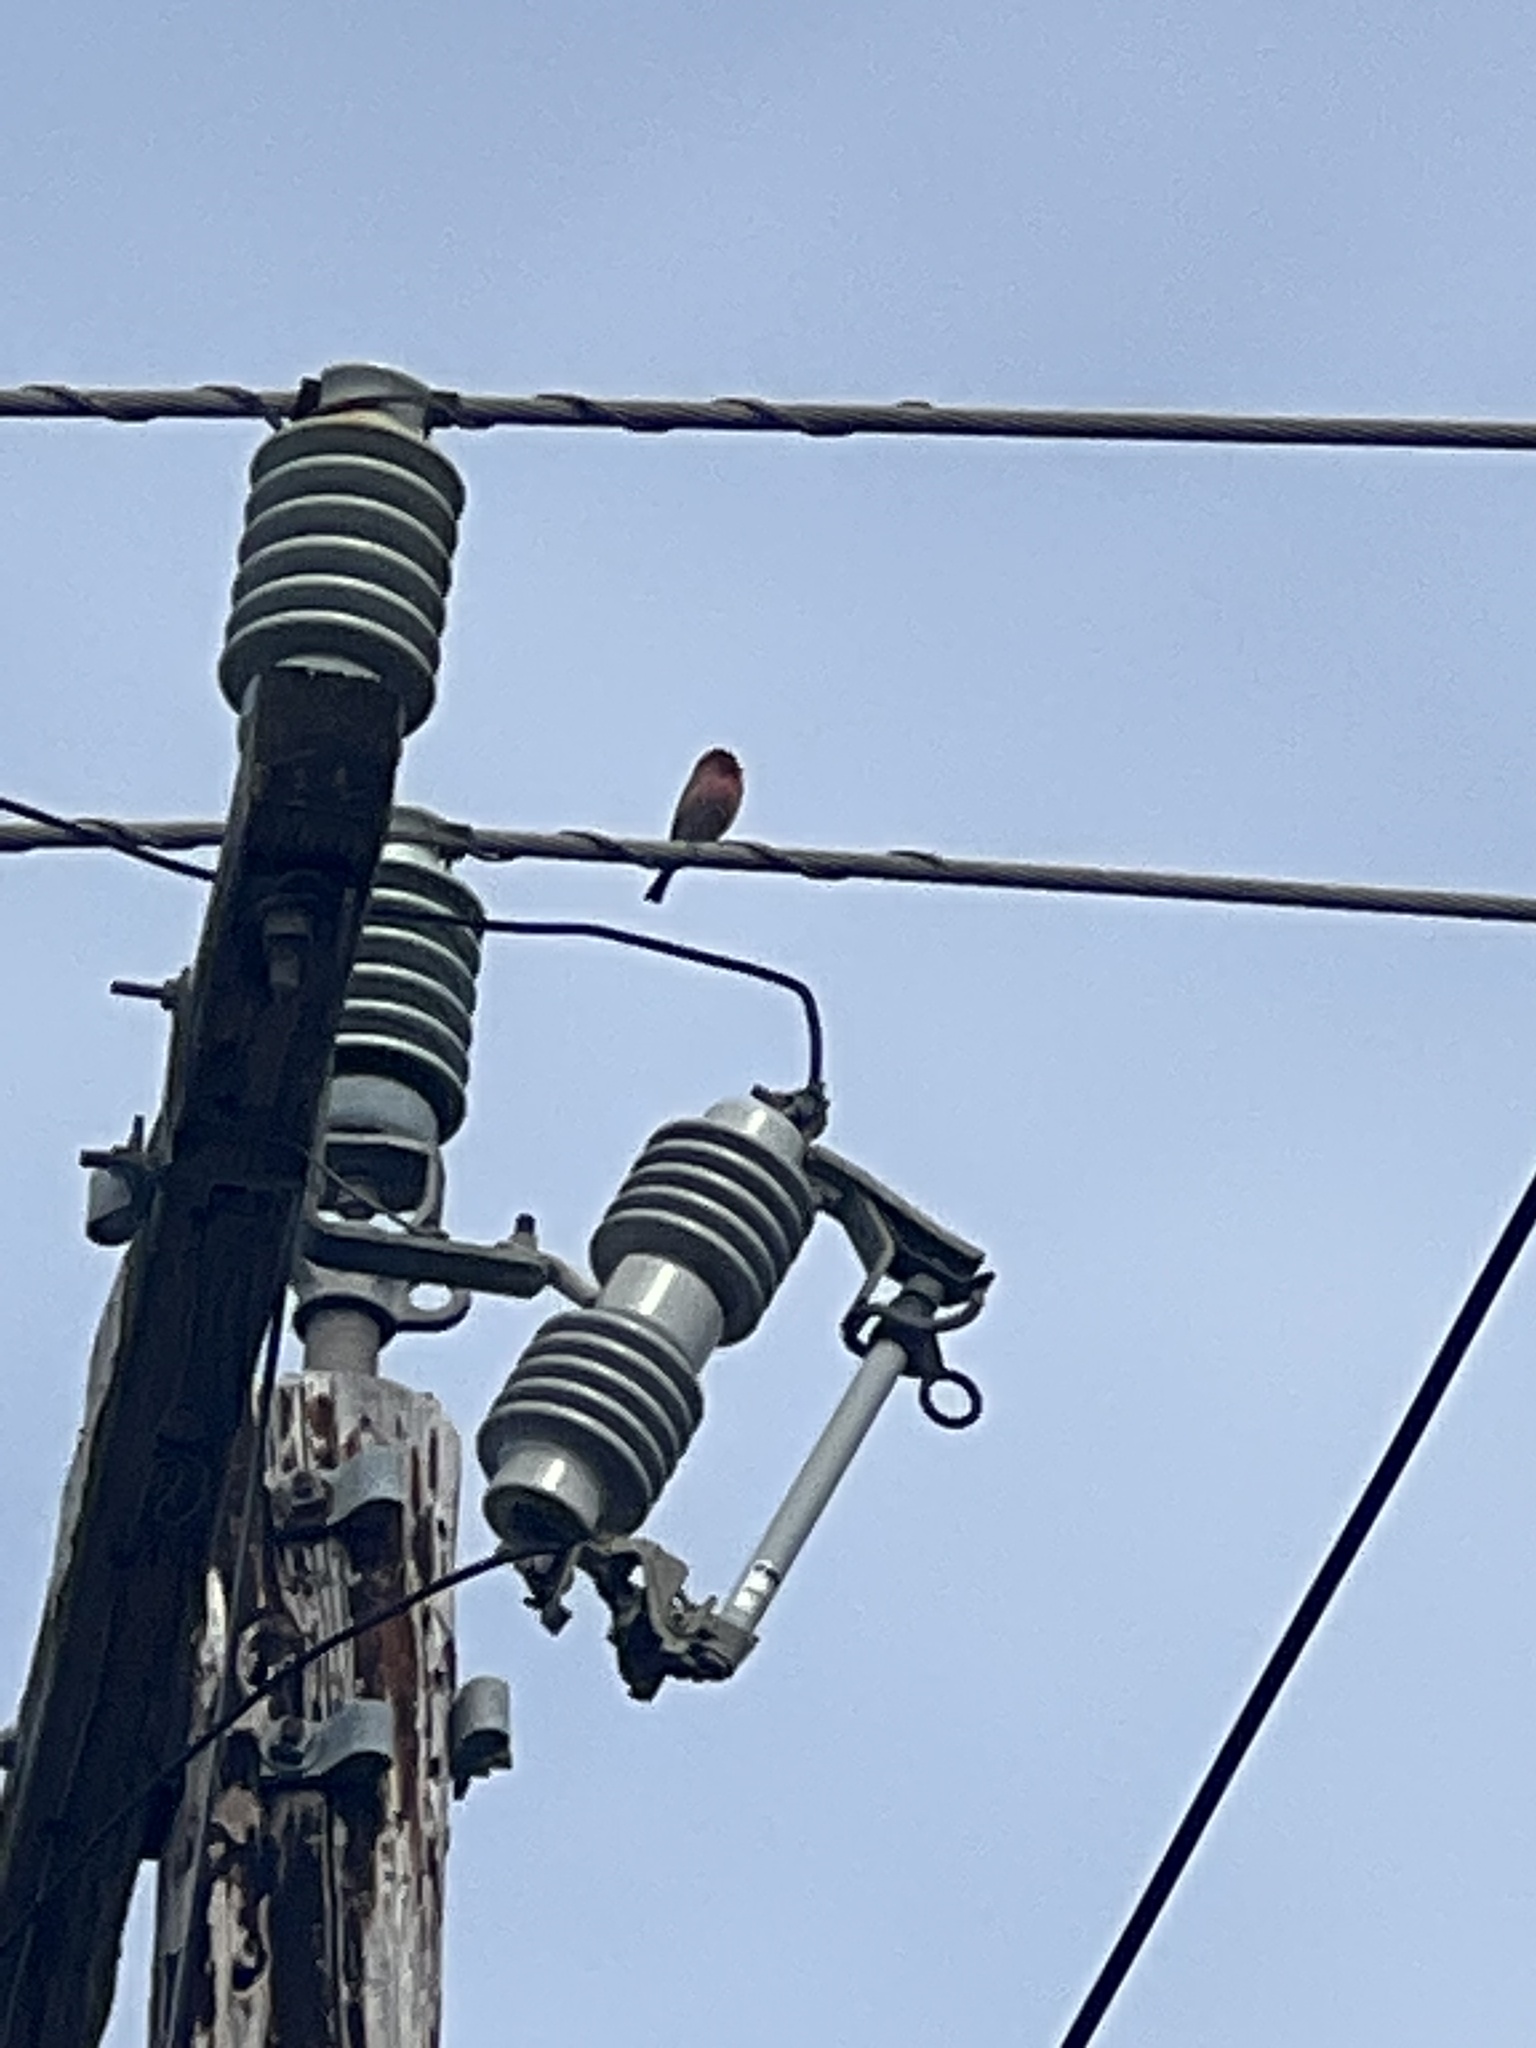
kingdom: Animalia
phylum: Chordata
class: Aves
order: Passeriformes
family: Fringillidae
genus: Haemorhous
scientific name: Haemorhous mexicanus
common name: House finch
